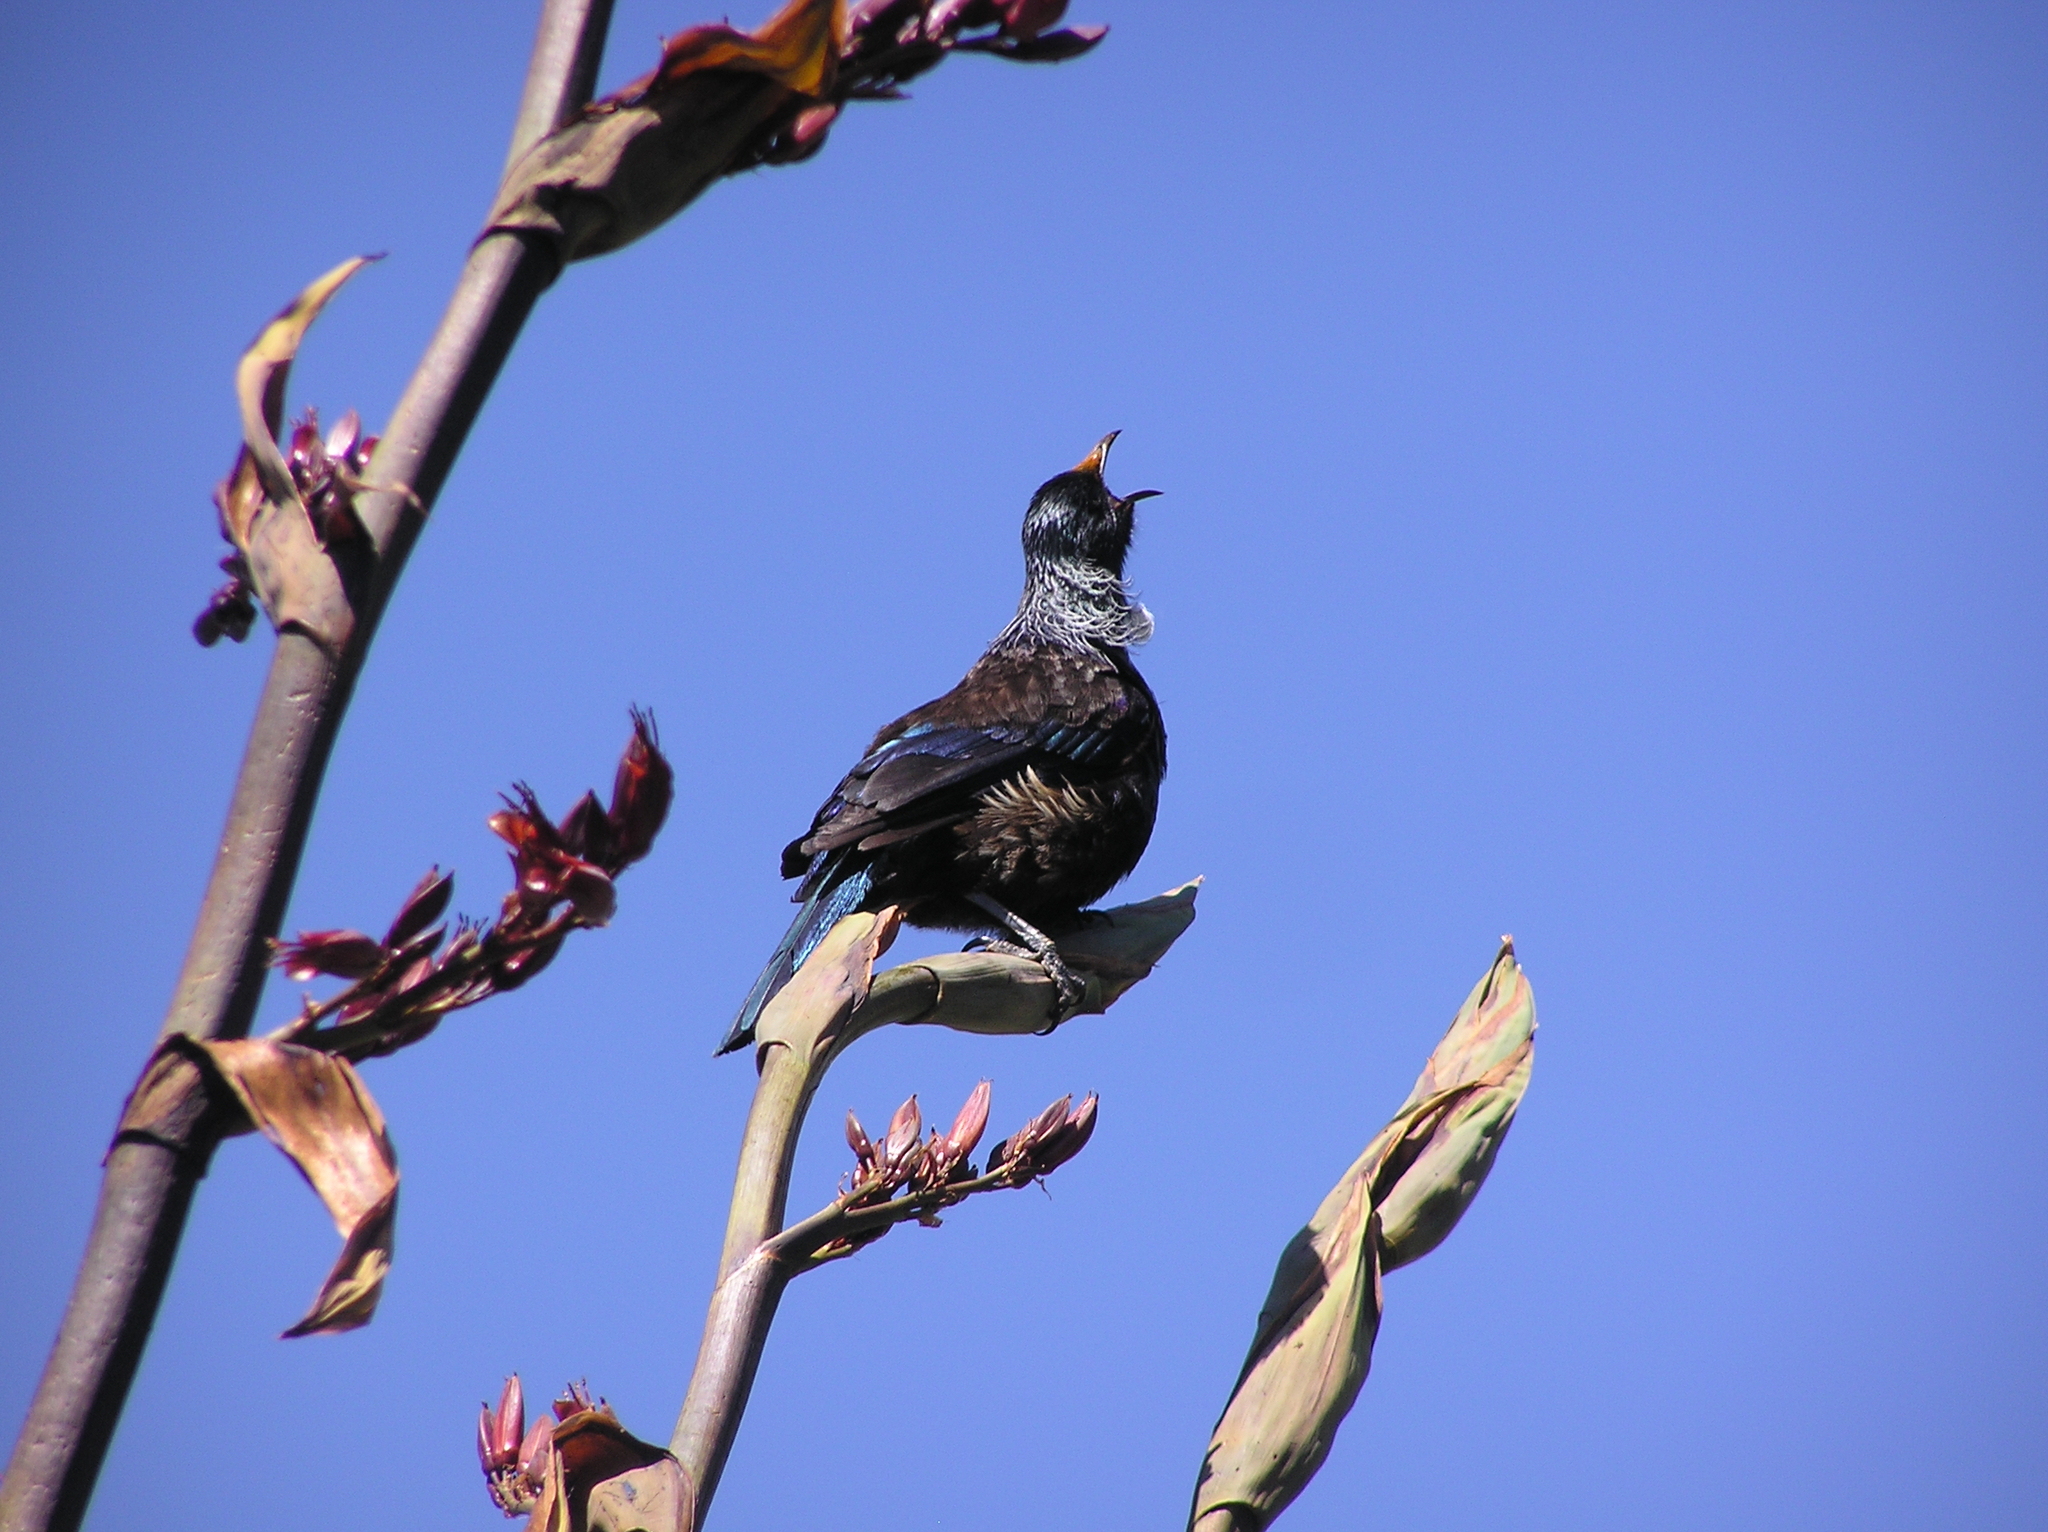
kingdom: Animalia
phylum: Chordata
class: Aves
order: Passeriformes
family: Meliphagidae
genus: Prosthemadera
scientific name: Prosthemadera novaeseelandiae
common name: Tui
